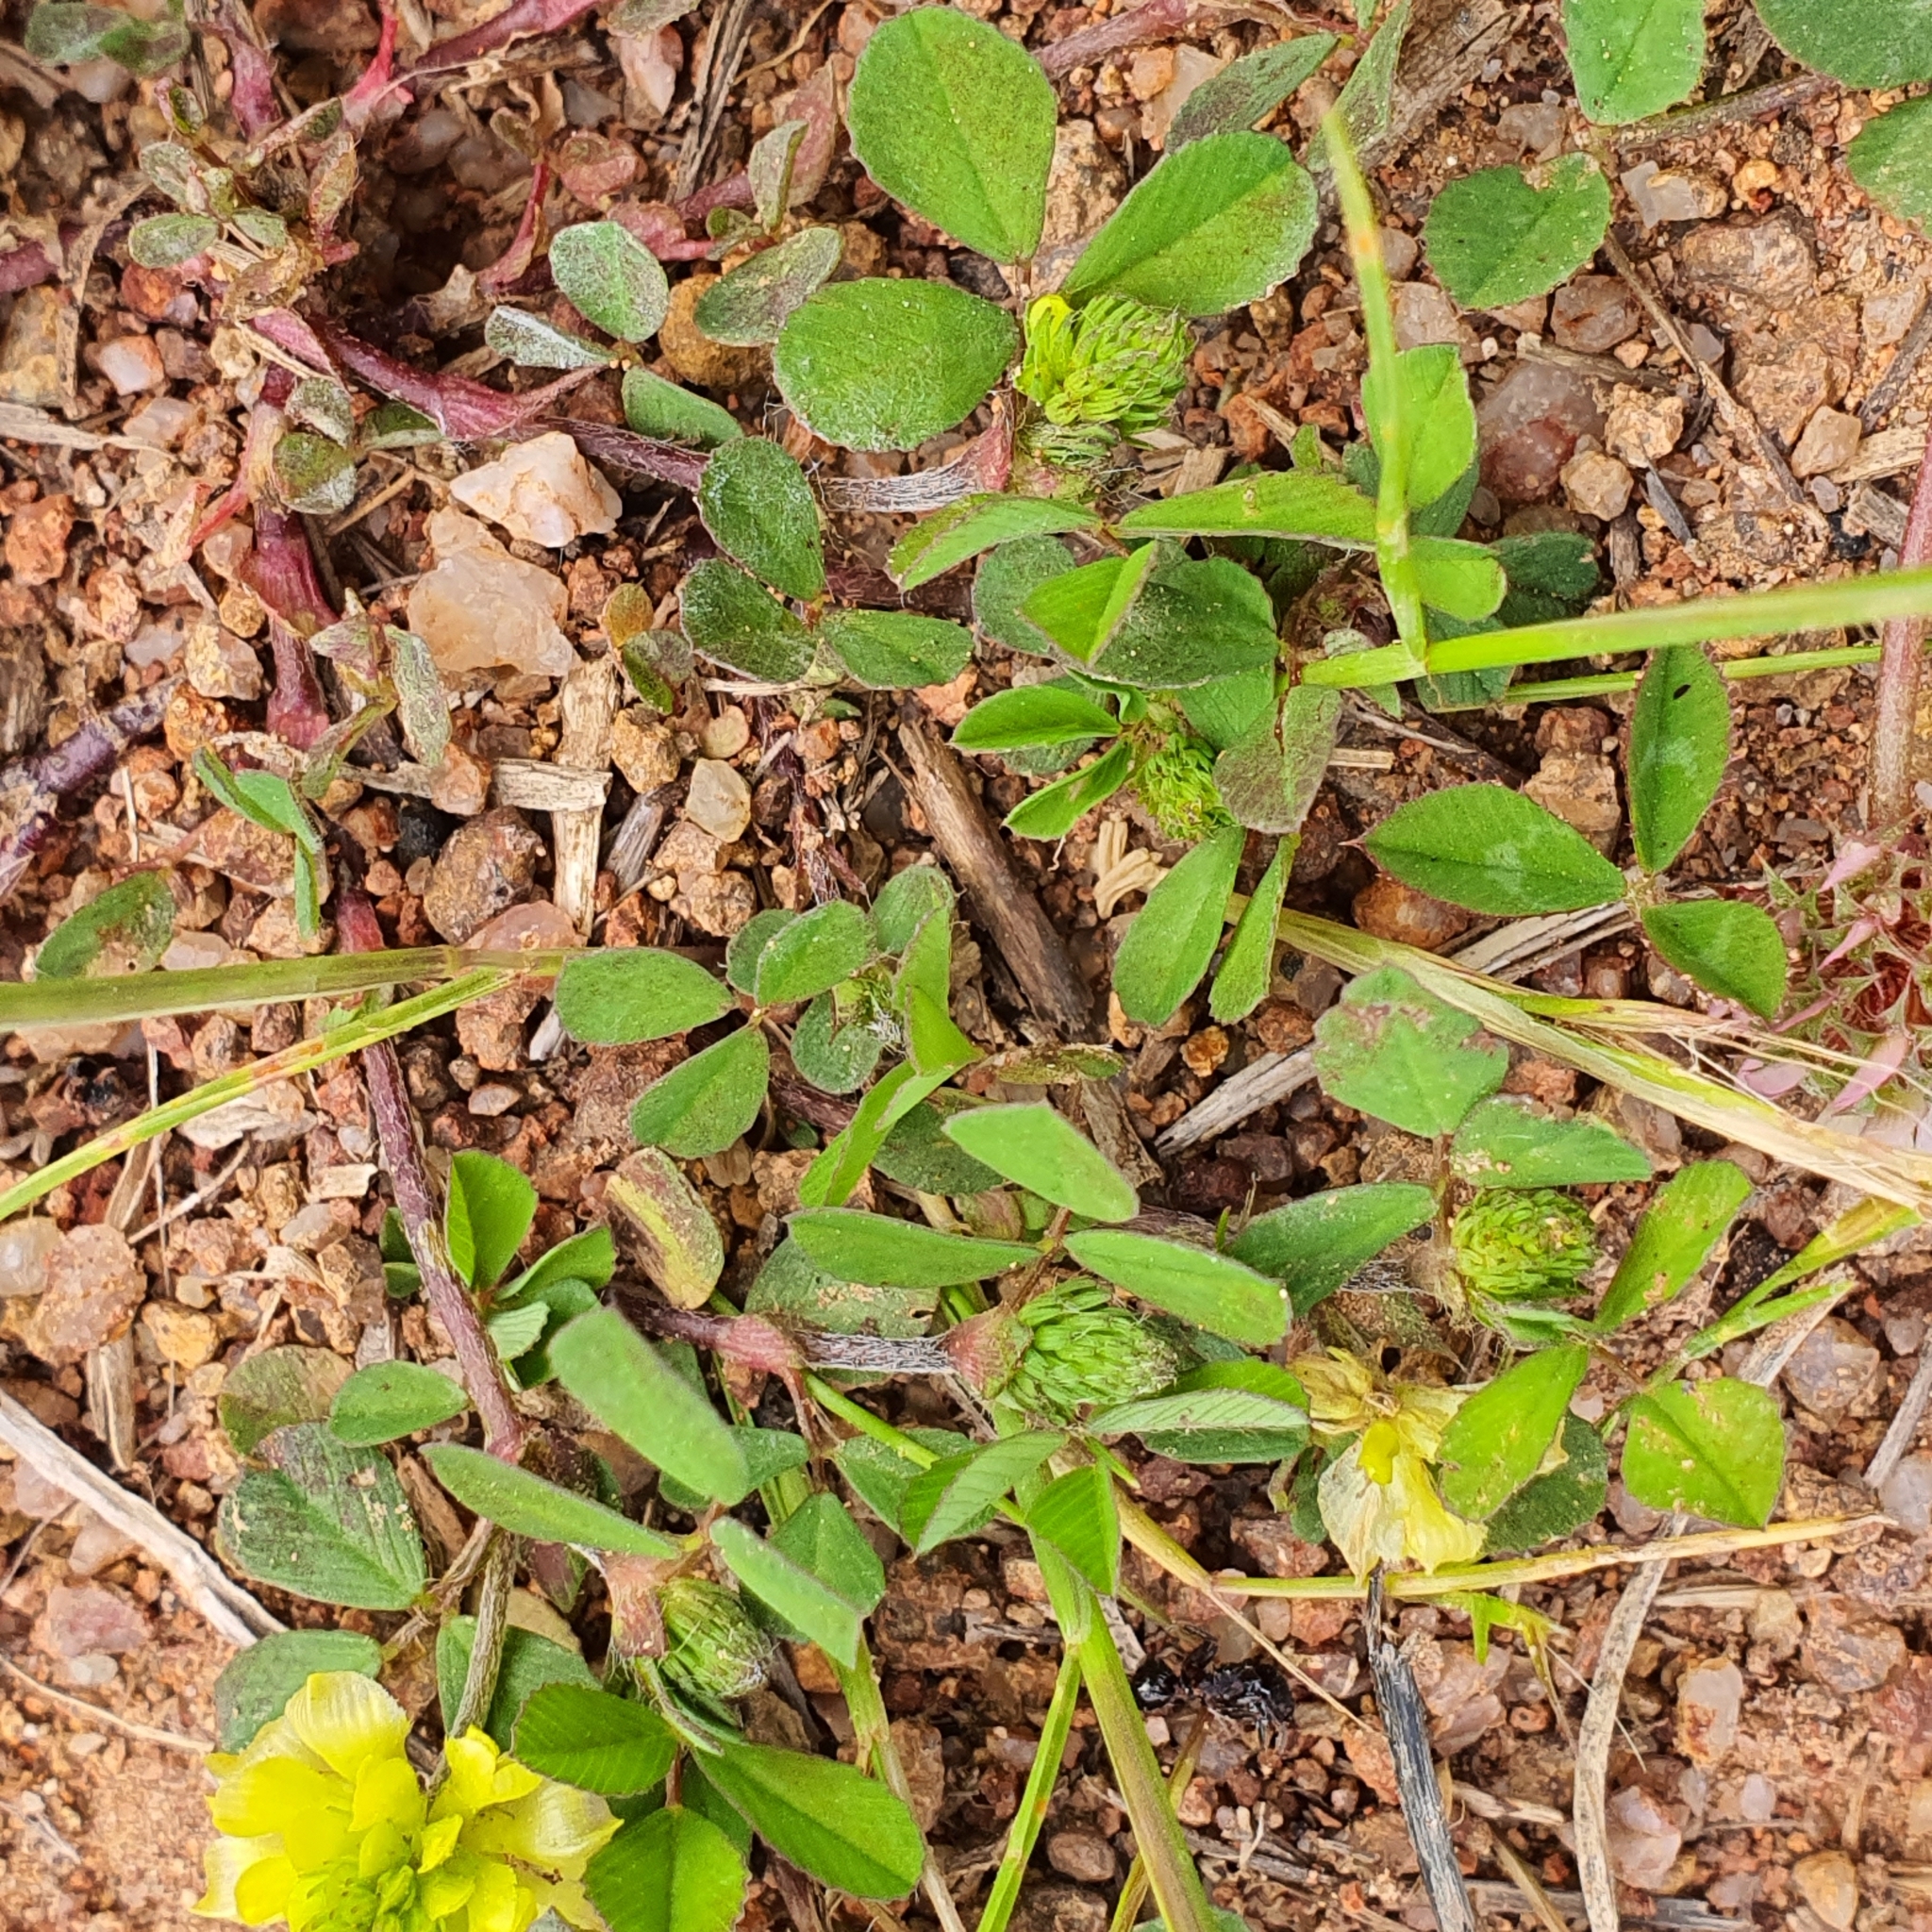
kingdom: Plantae
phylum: Tracheophyta
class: Magnoliopsida
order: Fabales
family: Fabaceae
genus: Trifolium
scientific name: Trifolium campestre
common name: Field clover
